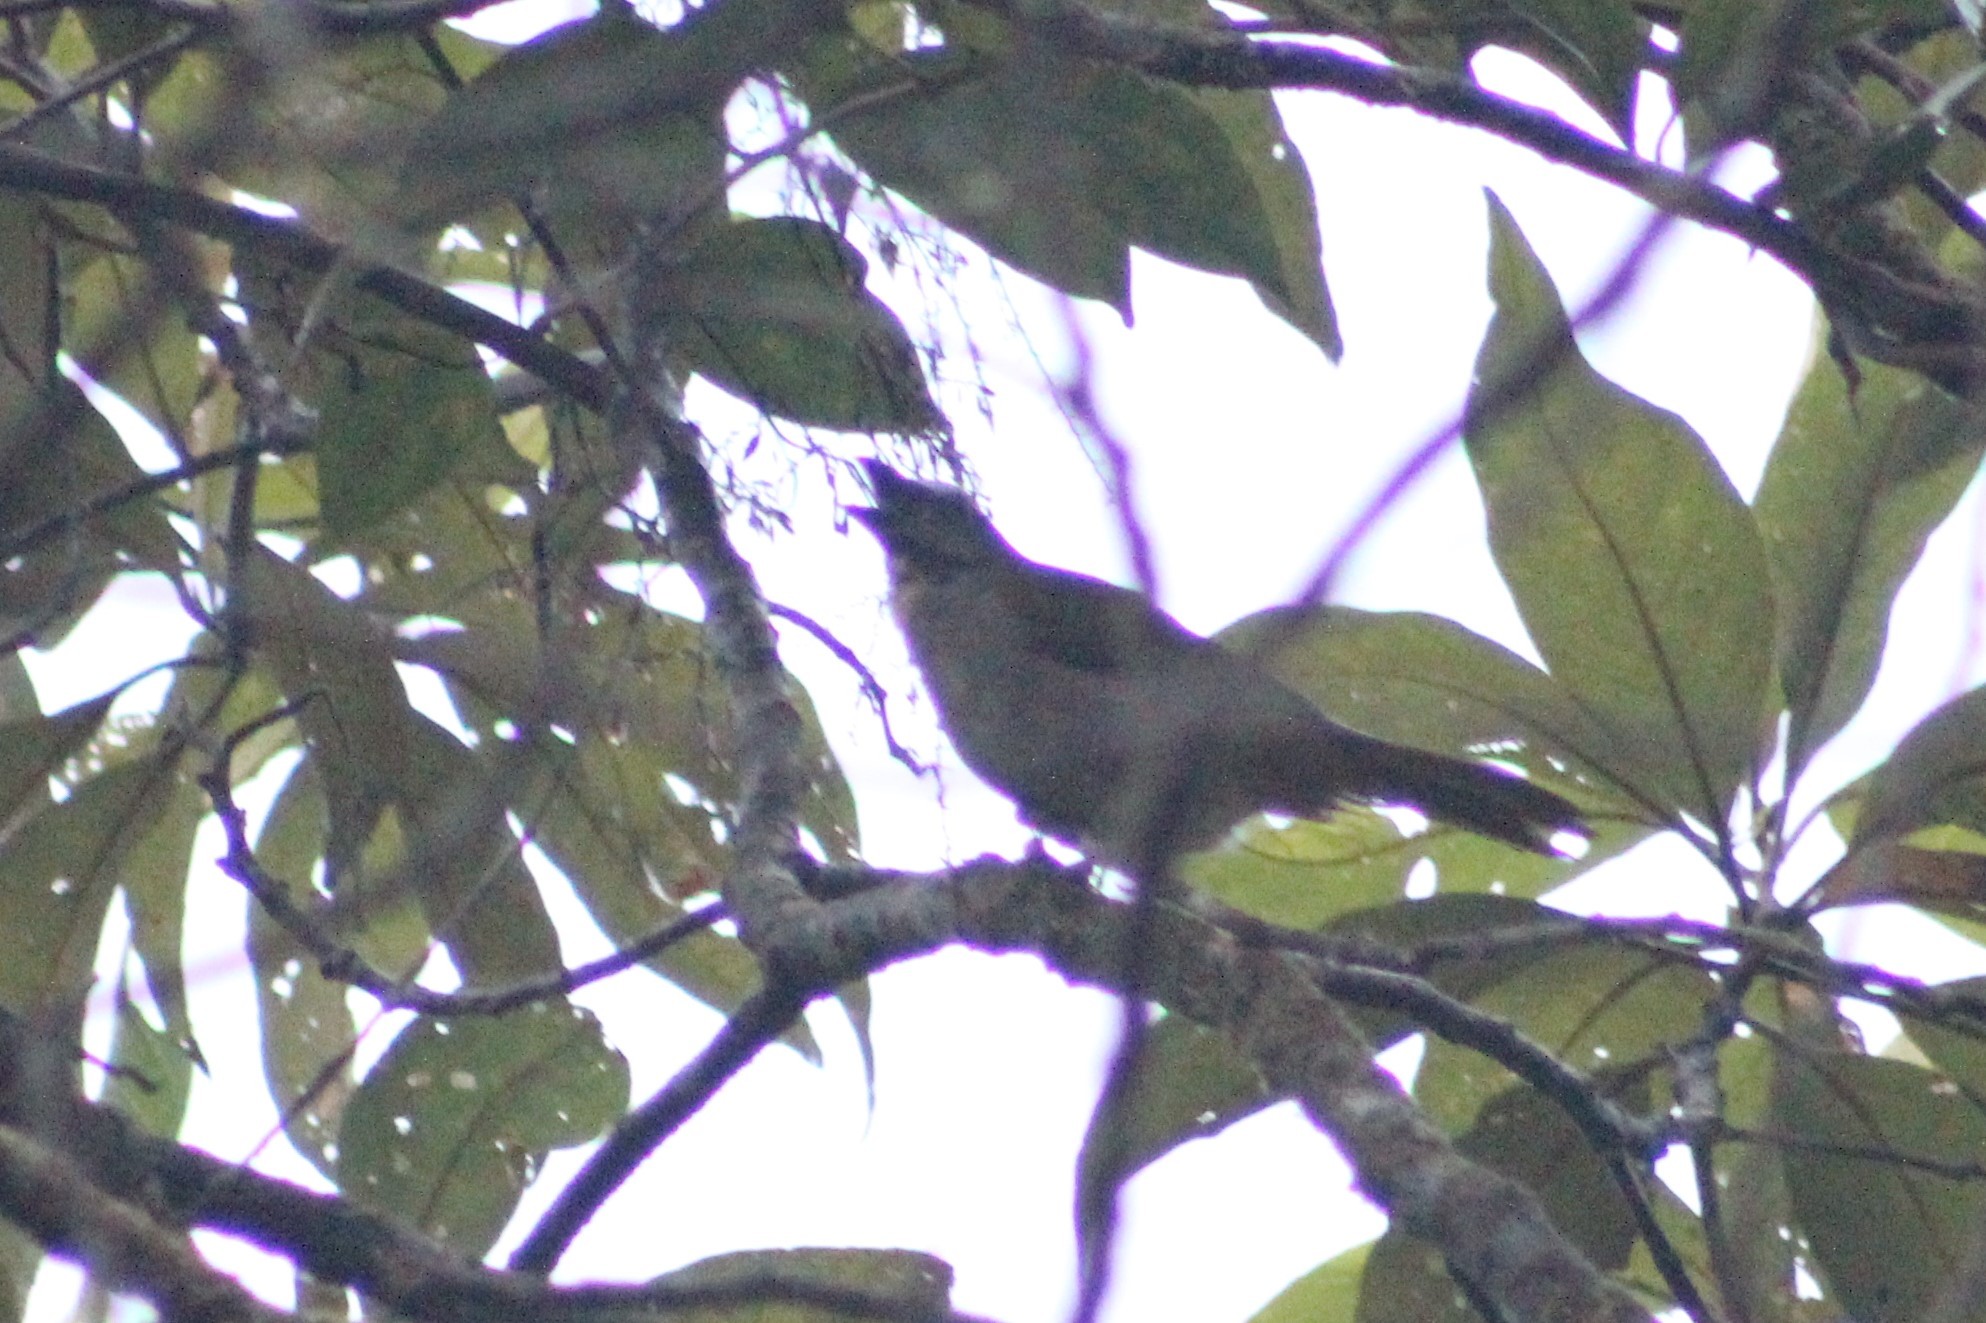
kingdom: Animalia
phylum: Chordata
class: Aves
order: Passeriformes
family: Thraupidae
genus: Saltator
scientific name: Saltator maximus
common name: Buff-throated saltator
